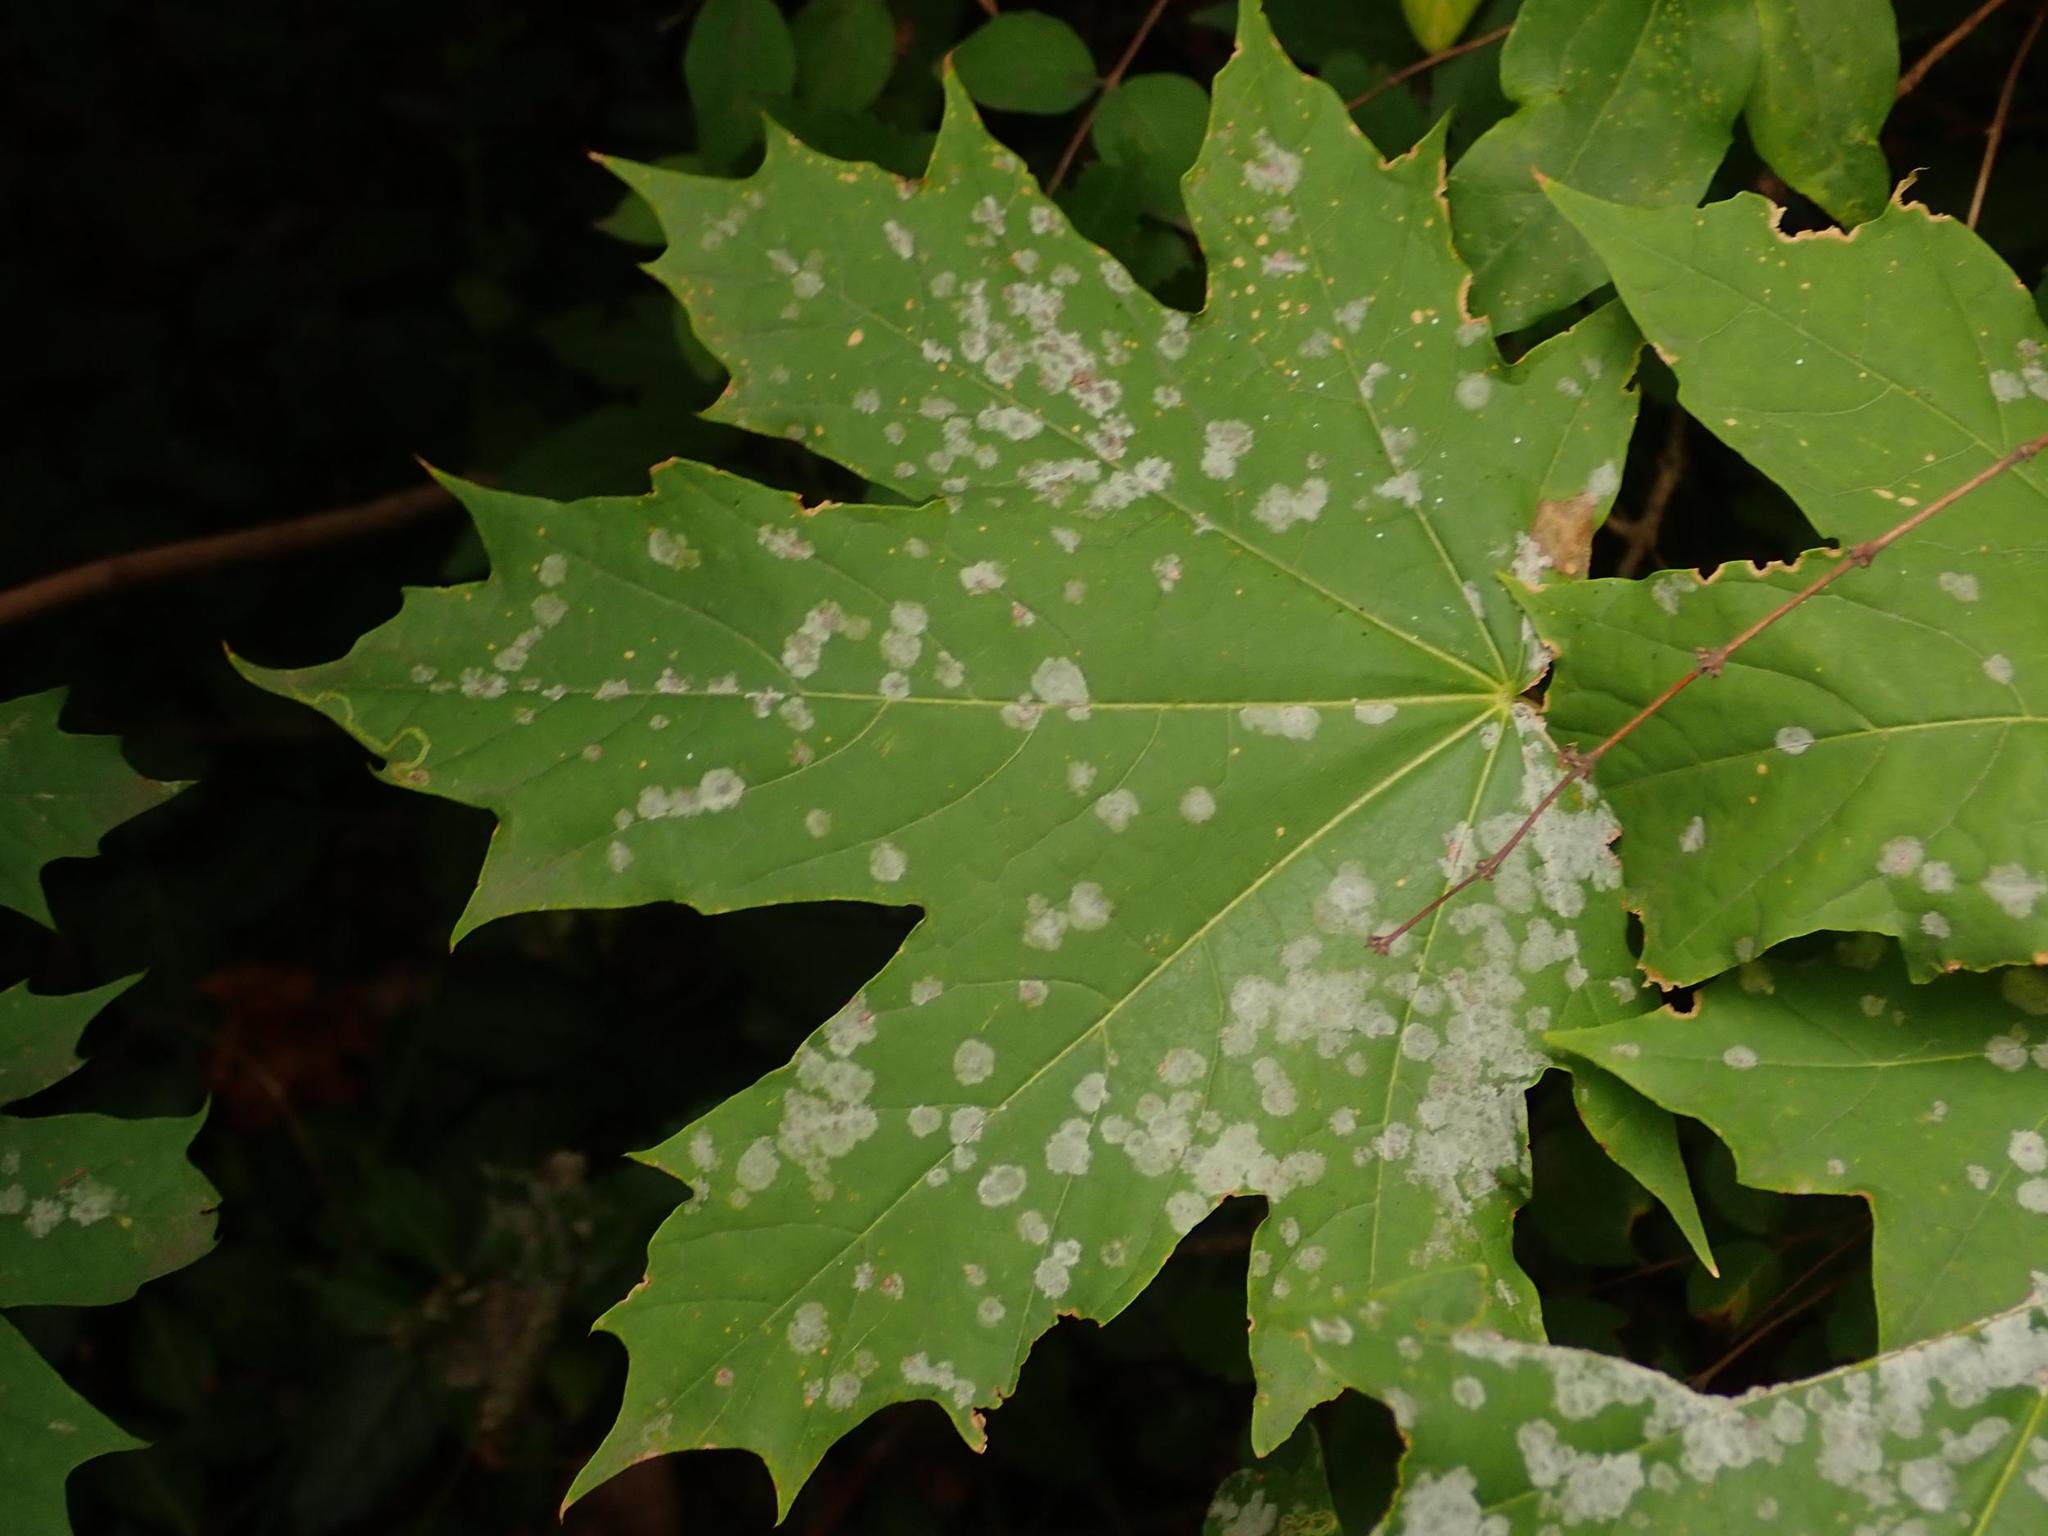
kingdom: Plantae
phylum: Tracheophyta
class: Magnoliopsida
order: Sapindales
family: Sapindaceae
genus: Acer
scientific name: Acer platanoides
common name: Norway maple
